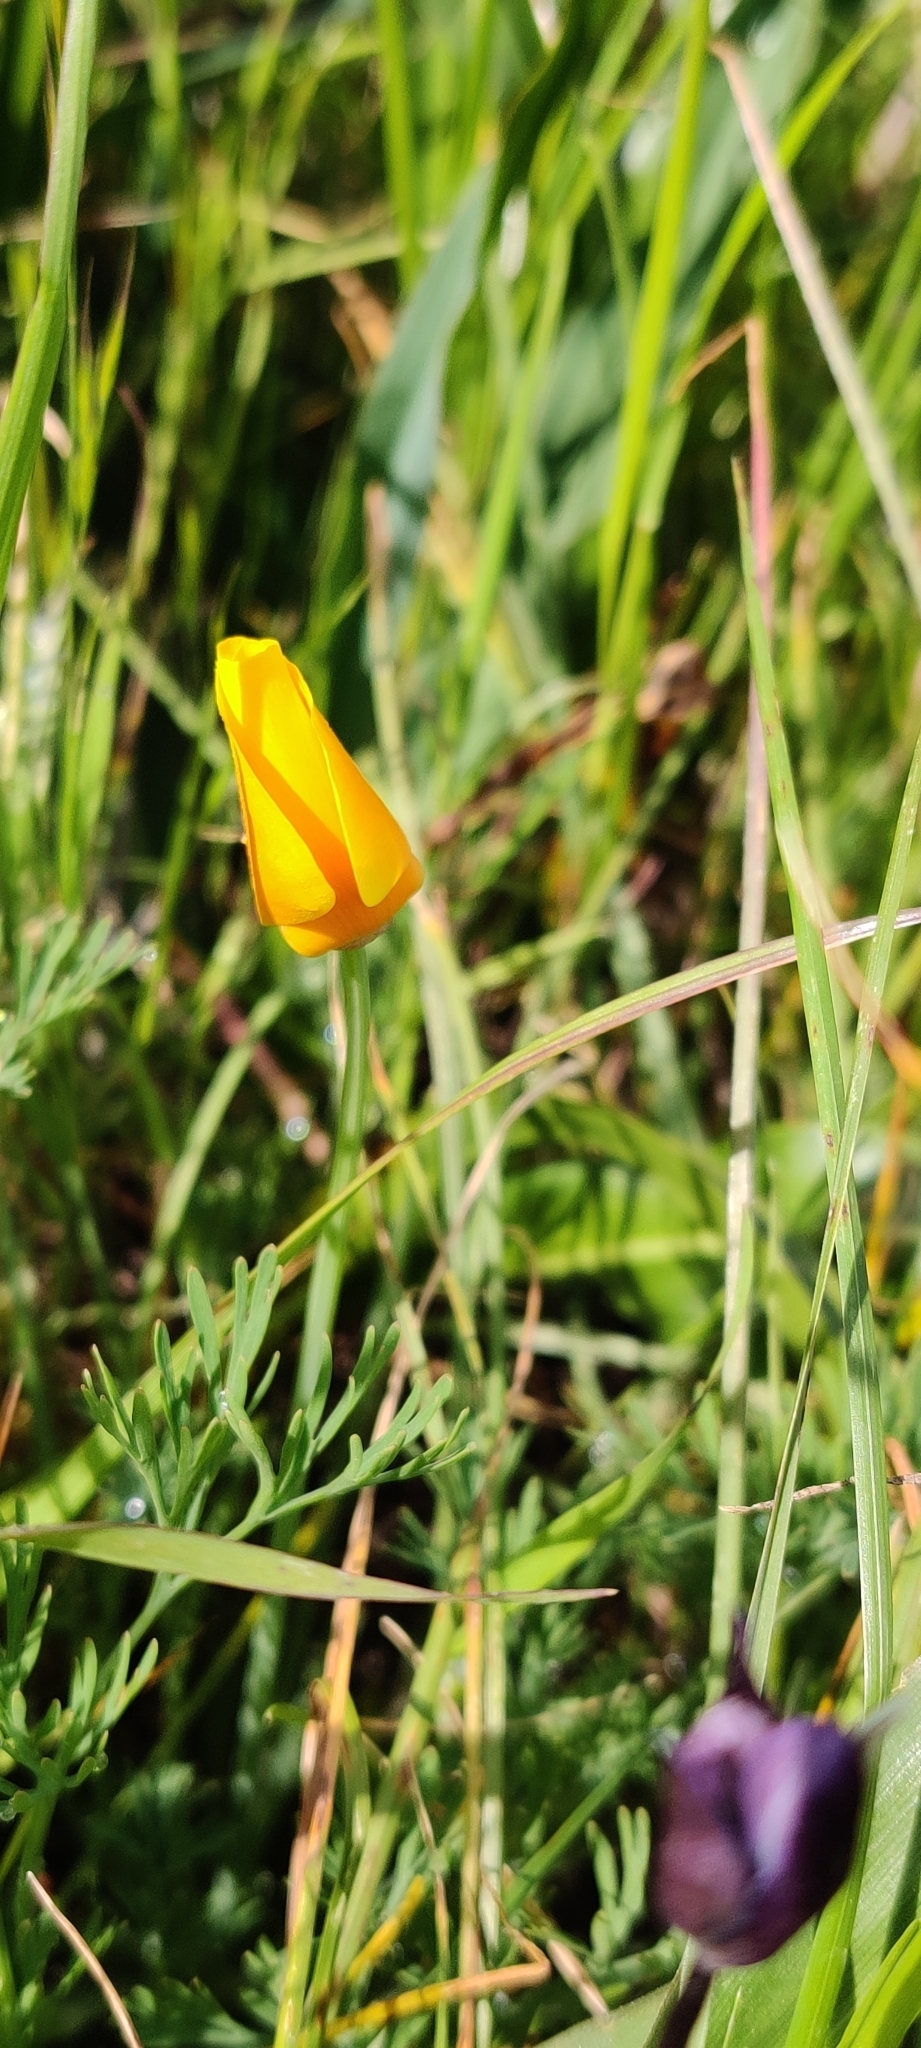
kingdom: Plantae
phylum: Tracheophyta
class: Magnoliopsida
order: Ranunculales
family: Papaveraceae
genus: Eschscholzia
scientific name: Eschscholzia californica
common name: California poppy
